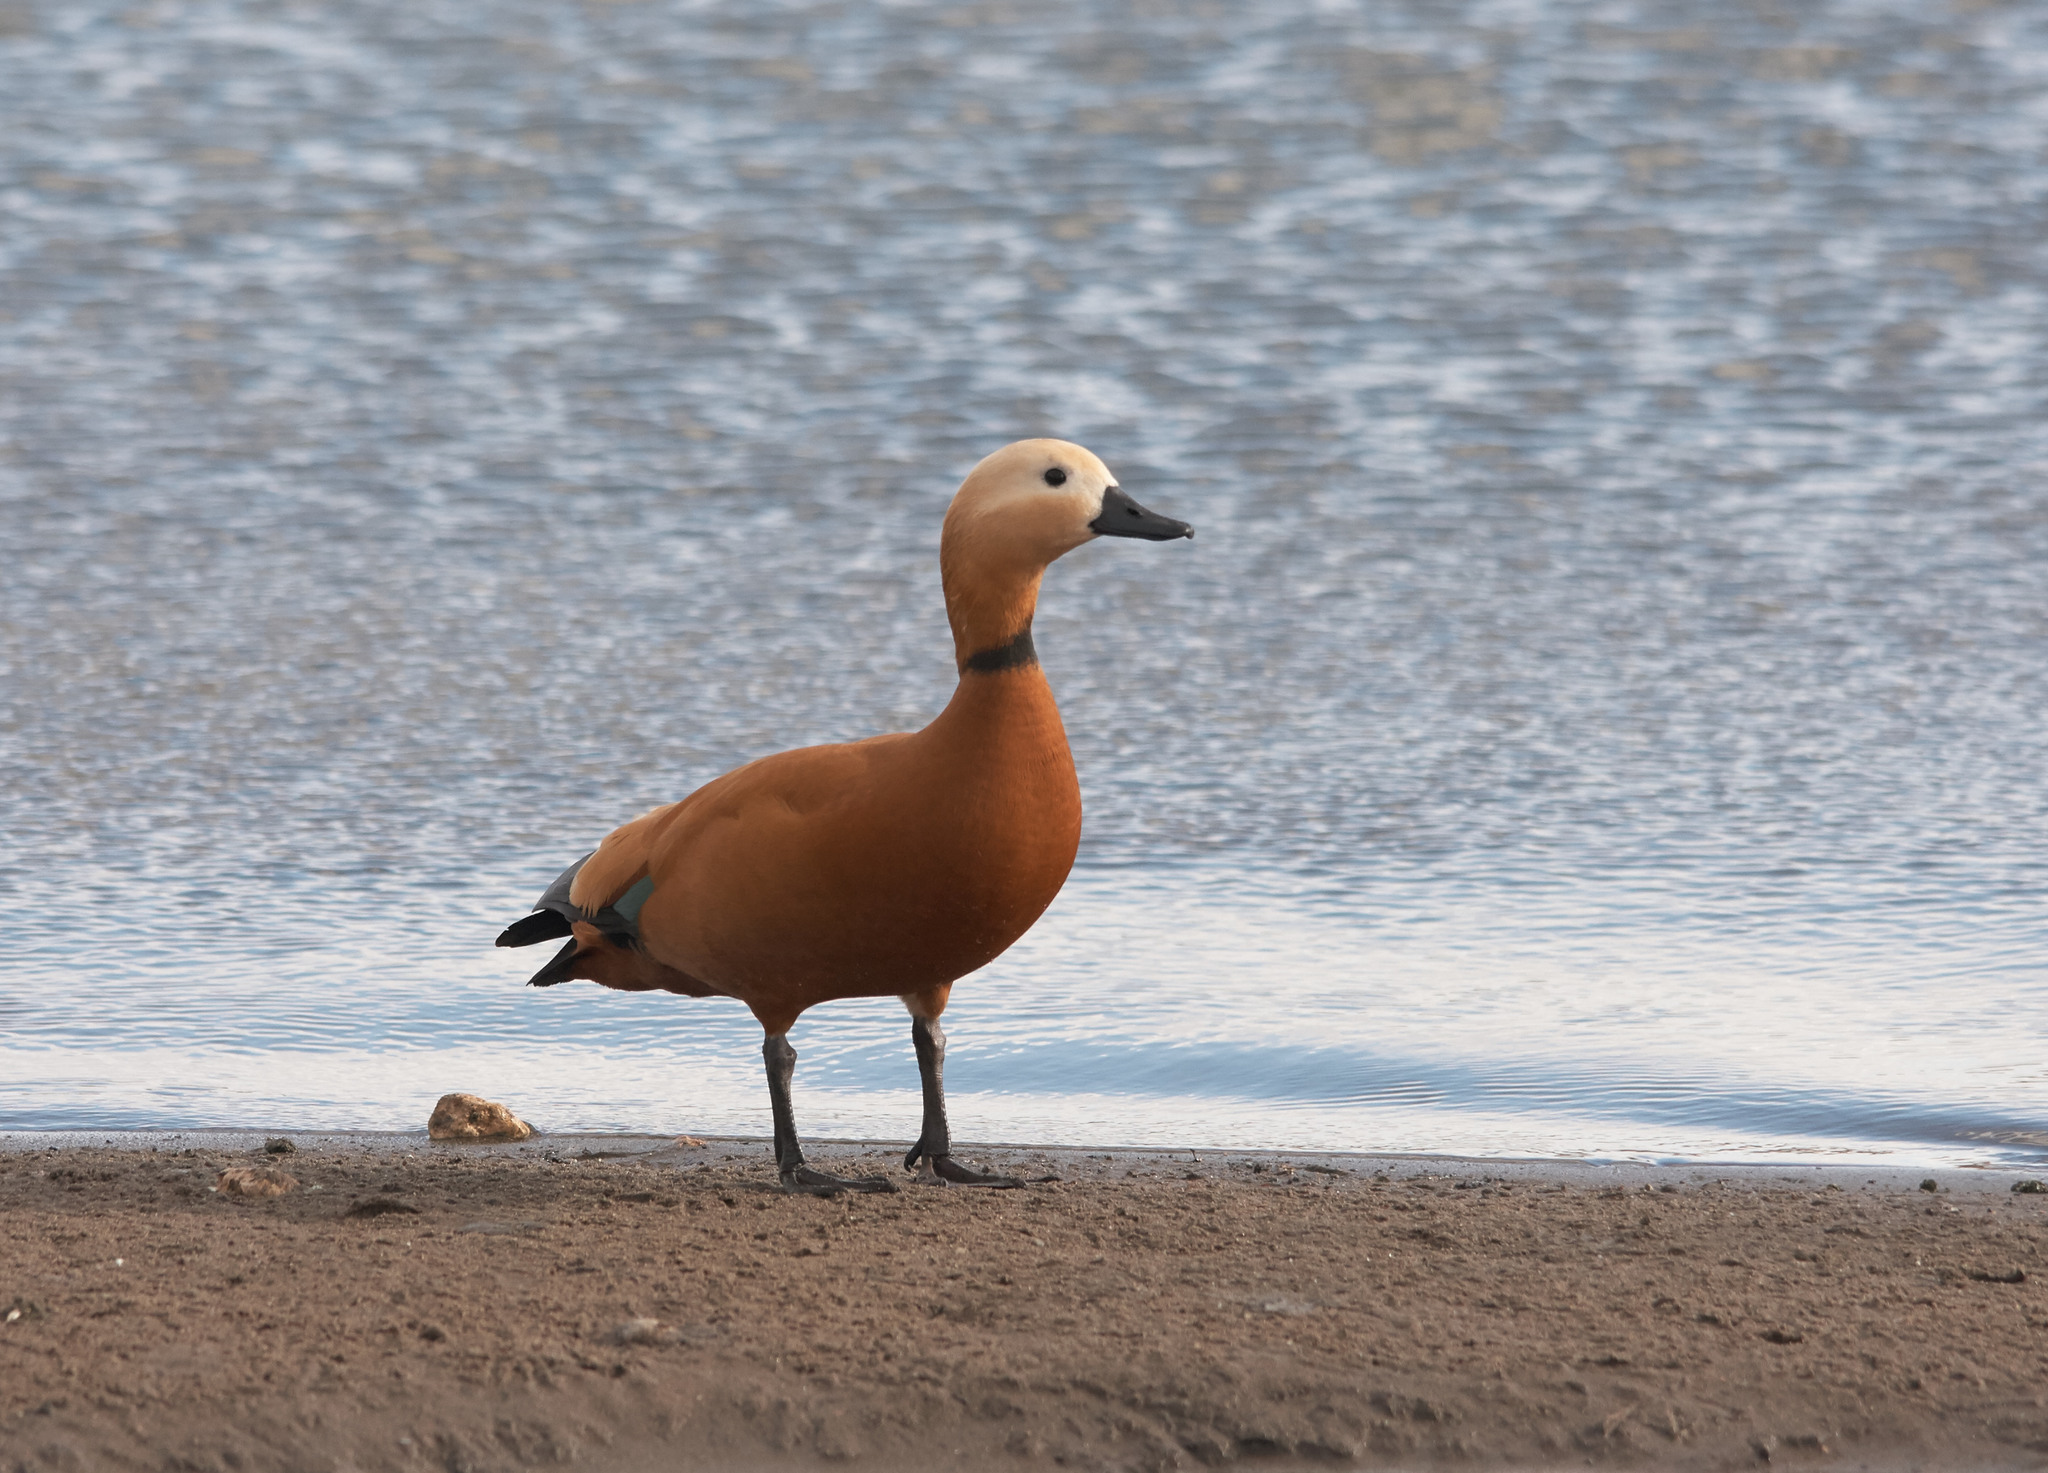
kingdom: Animalia
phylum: Chordata
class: Aves
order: Anseriformes
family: Anatidae
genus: Tadorna
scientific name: Tadorna ferruginea
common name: Ruddy shelduck
